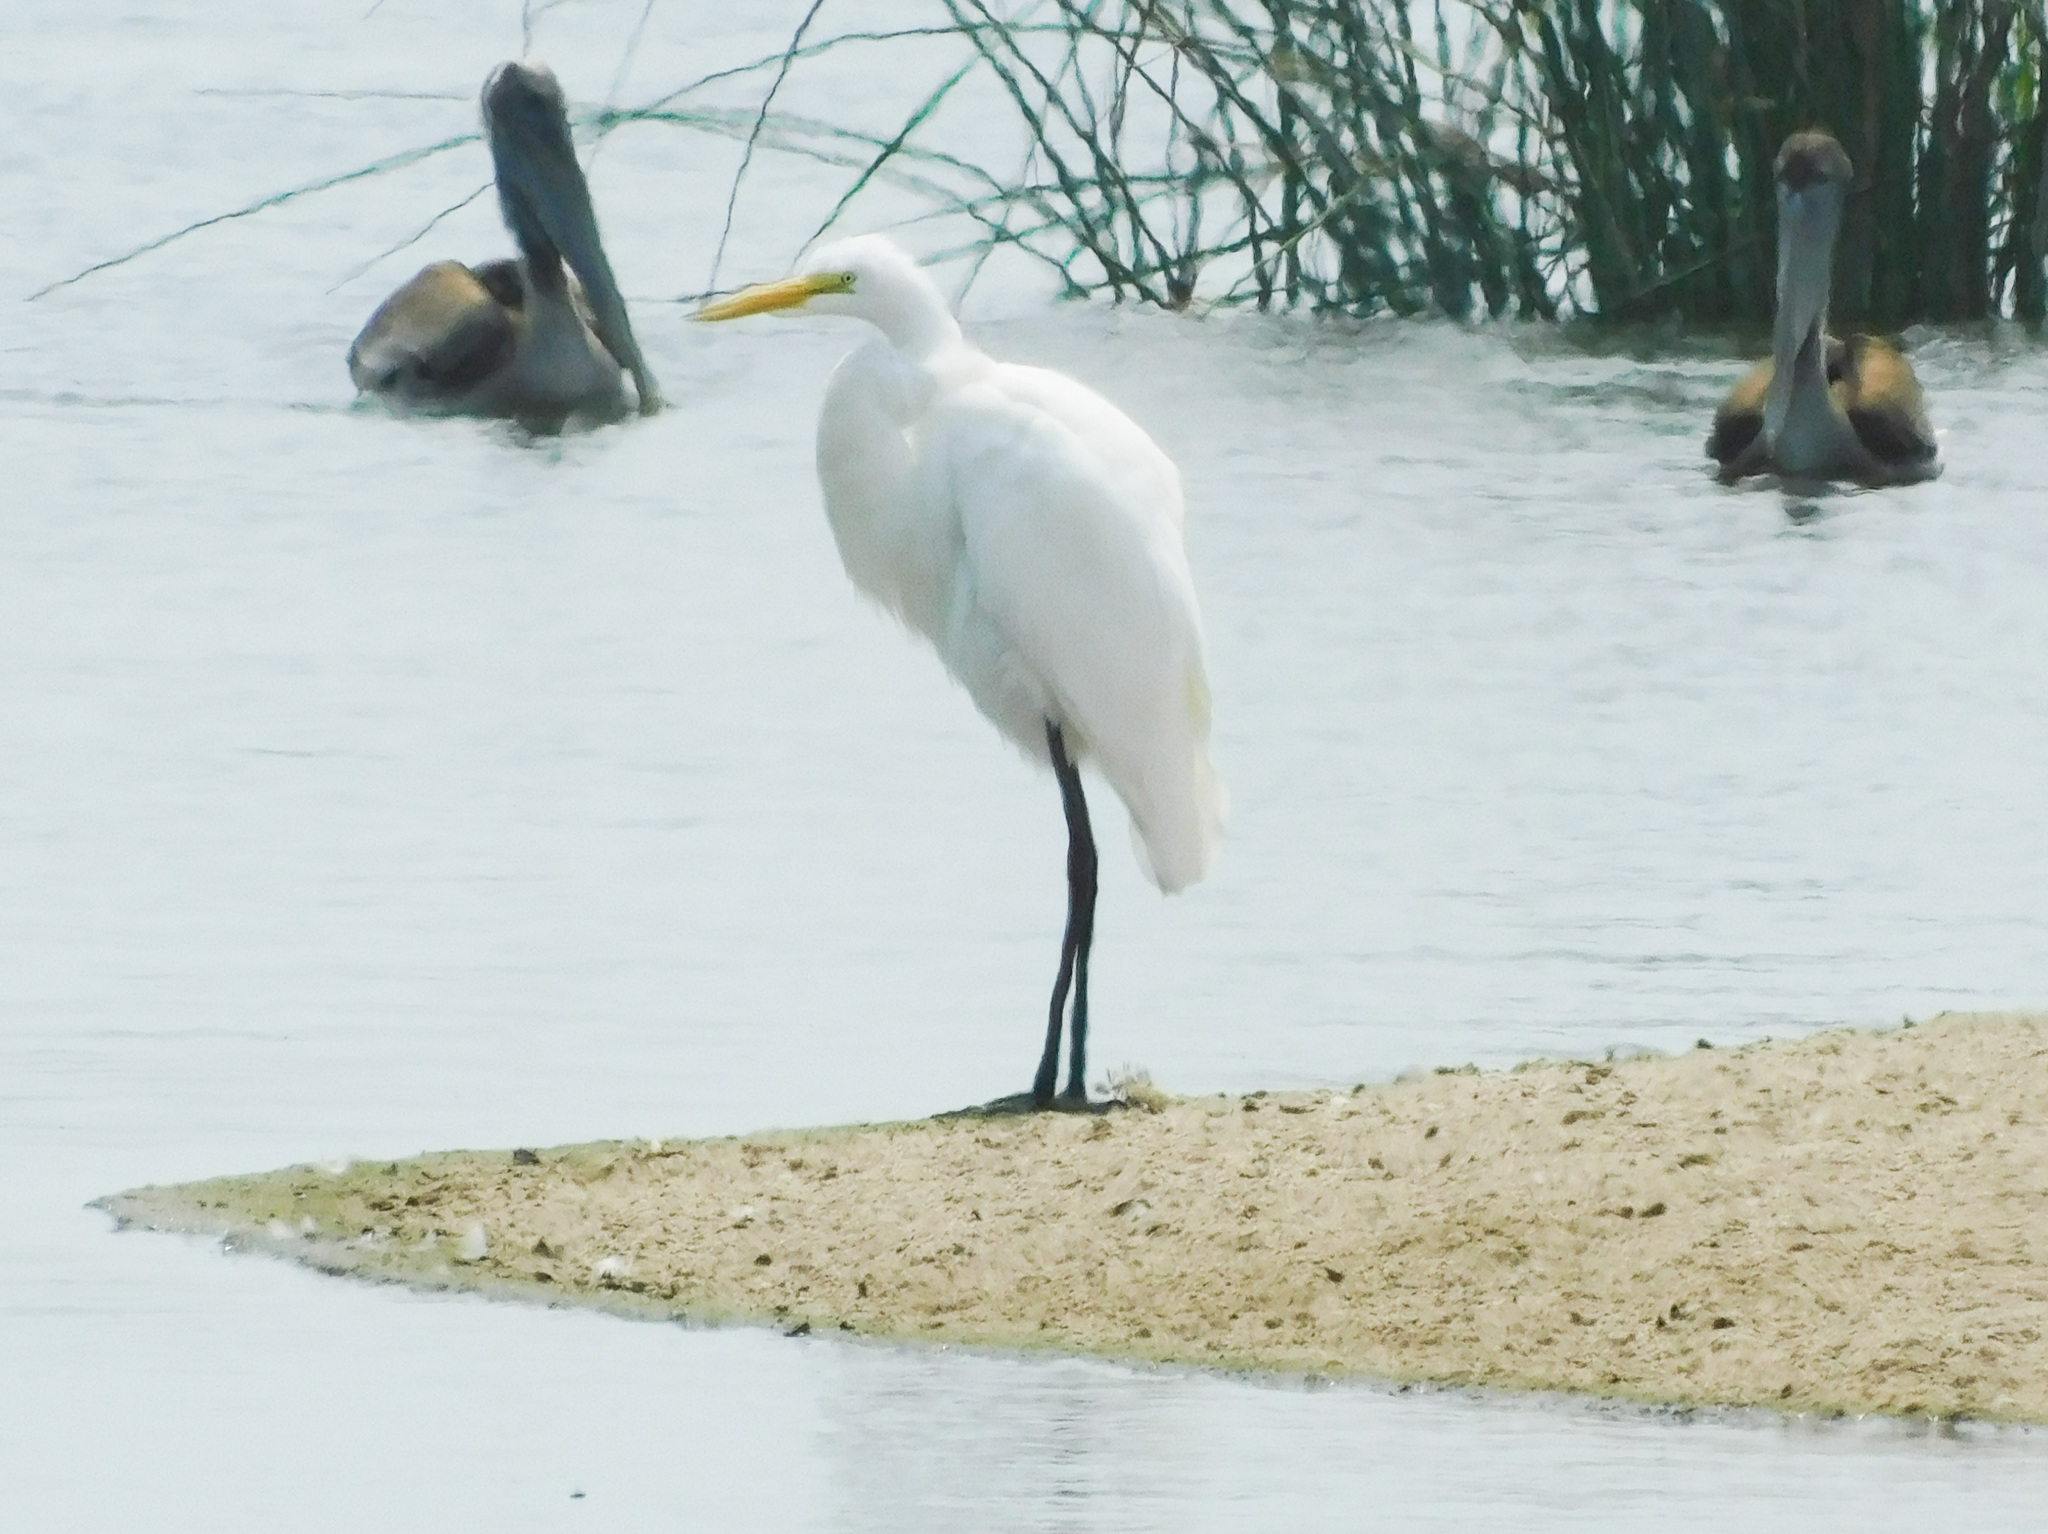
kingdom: Animalia
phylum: Chordata
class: Aves
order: Pelecaniformes
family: Ardeidae
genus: Ardea
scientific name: Ardea alba
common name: Great egret
